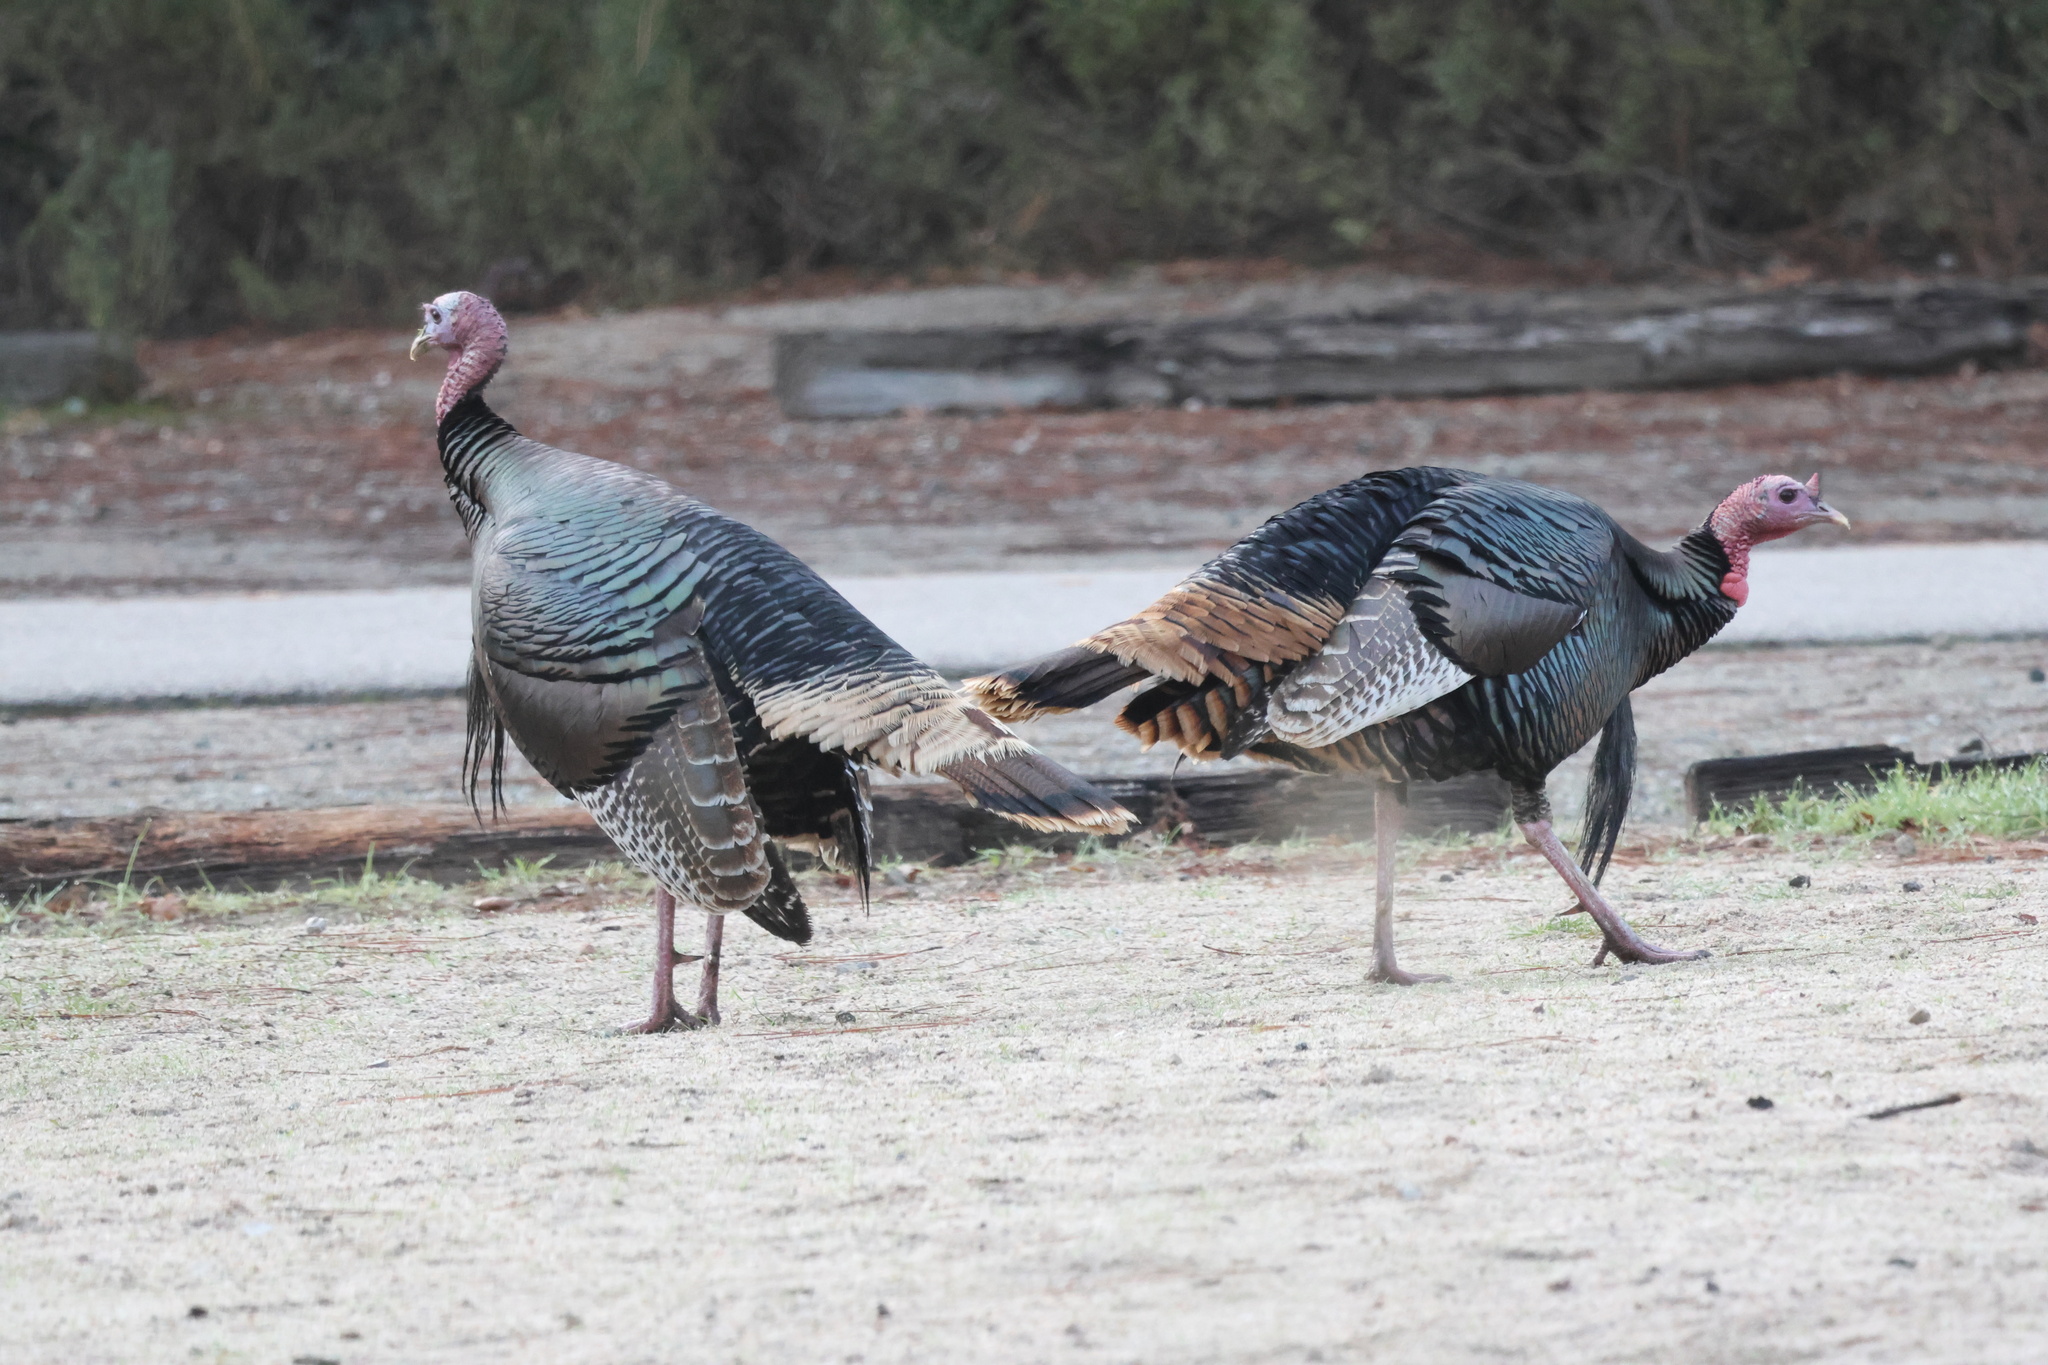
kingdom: Animalia
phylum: Chordata
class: Aves
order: Galliformes
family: Phasianidae
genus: Meleagris
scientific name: Meleagris gallopavo
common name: Wild turkey
